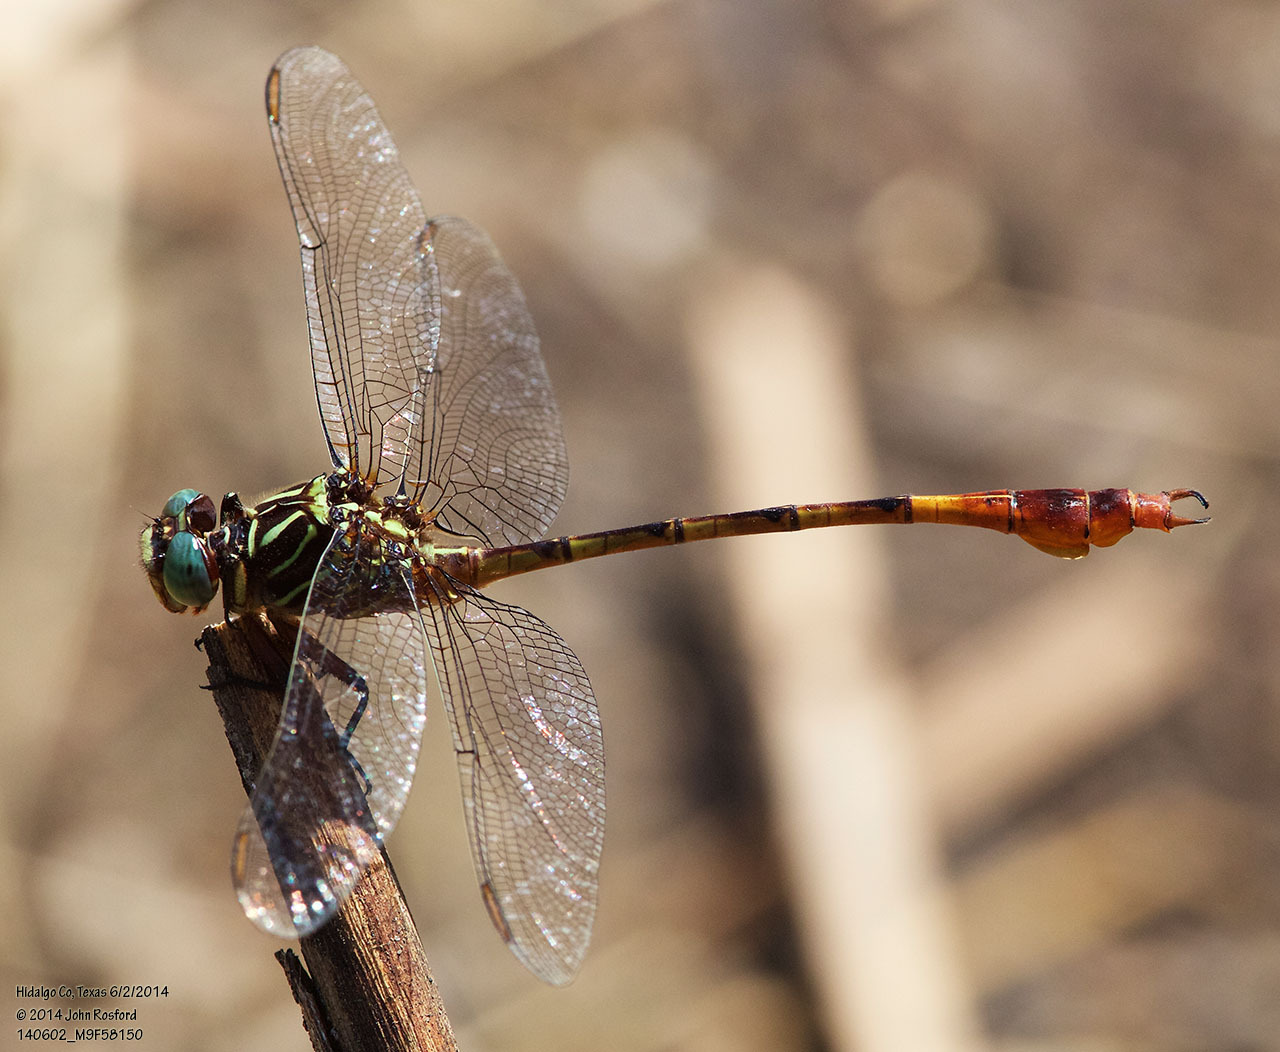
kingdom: Animalia
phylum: Arthropoda
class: Insecta
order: Odonata
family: Gomphidae
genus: Aphylla
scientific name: Aphylla protracta
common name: Narrow-striped forceptail
